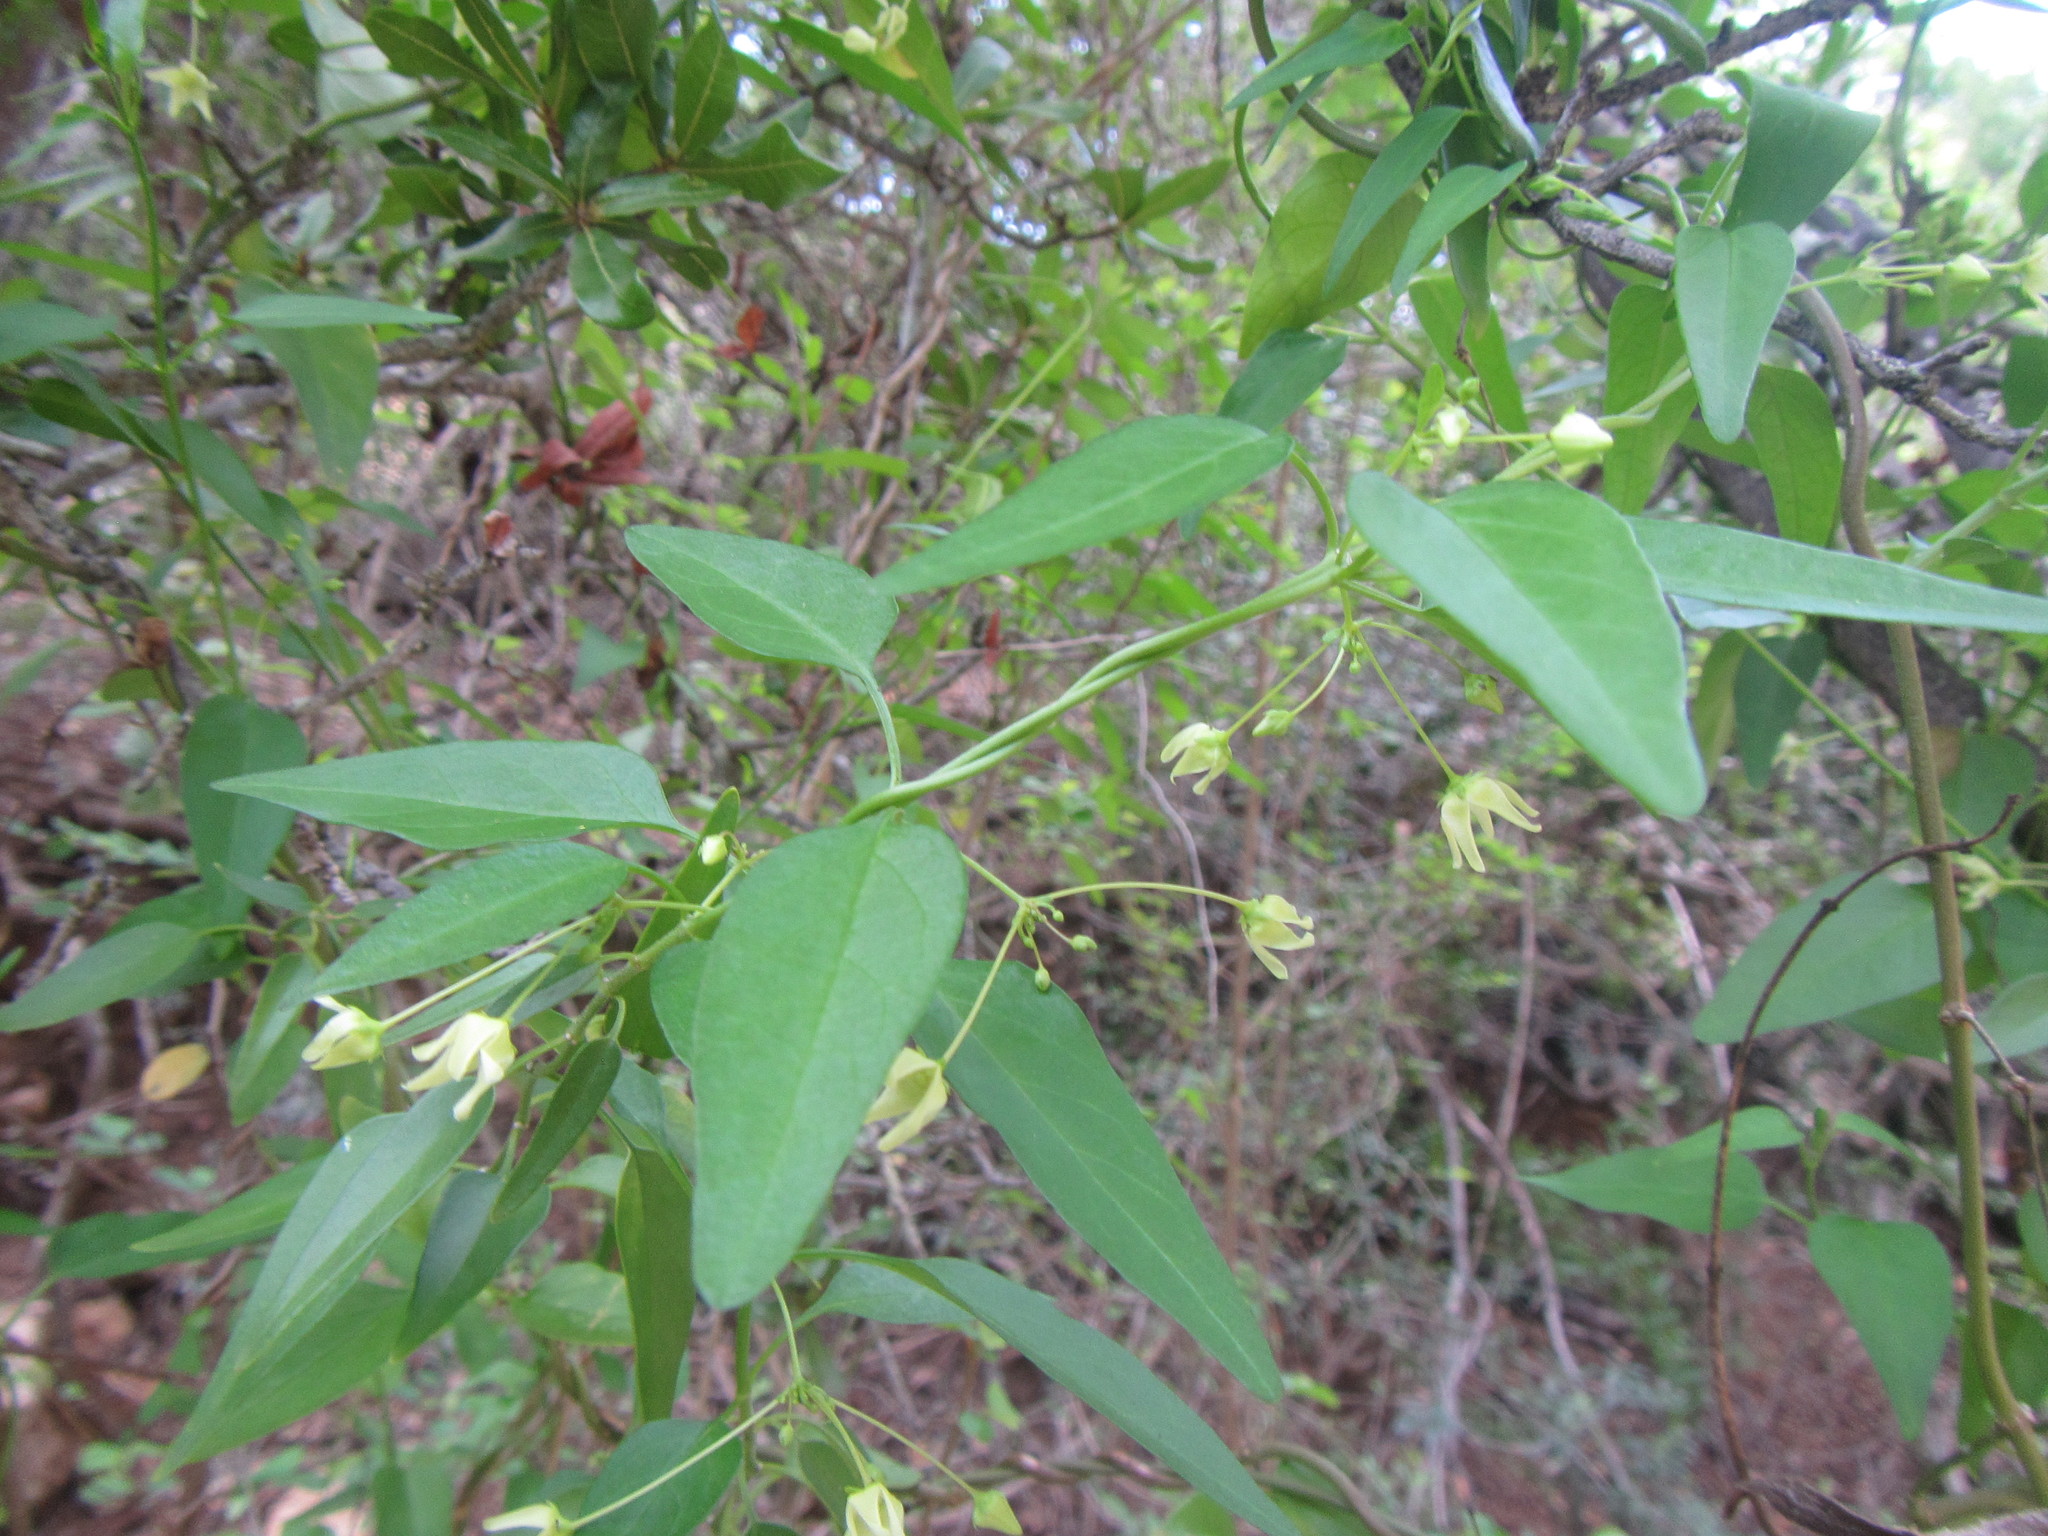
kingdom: Plantae
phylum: Tracheophyta
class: Magnoliopsida
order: Gentianales
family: Apocynaceae
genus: Vincetoxicum
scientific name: Vincetoxicum lycioides
